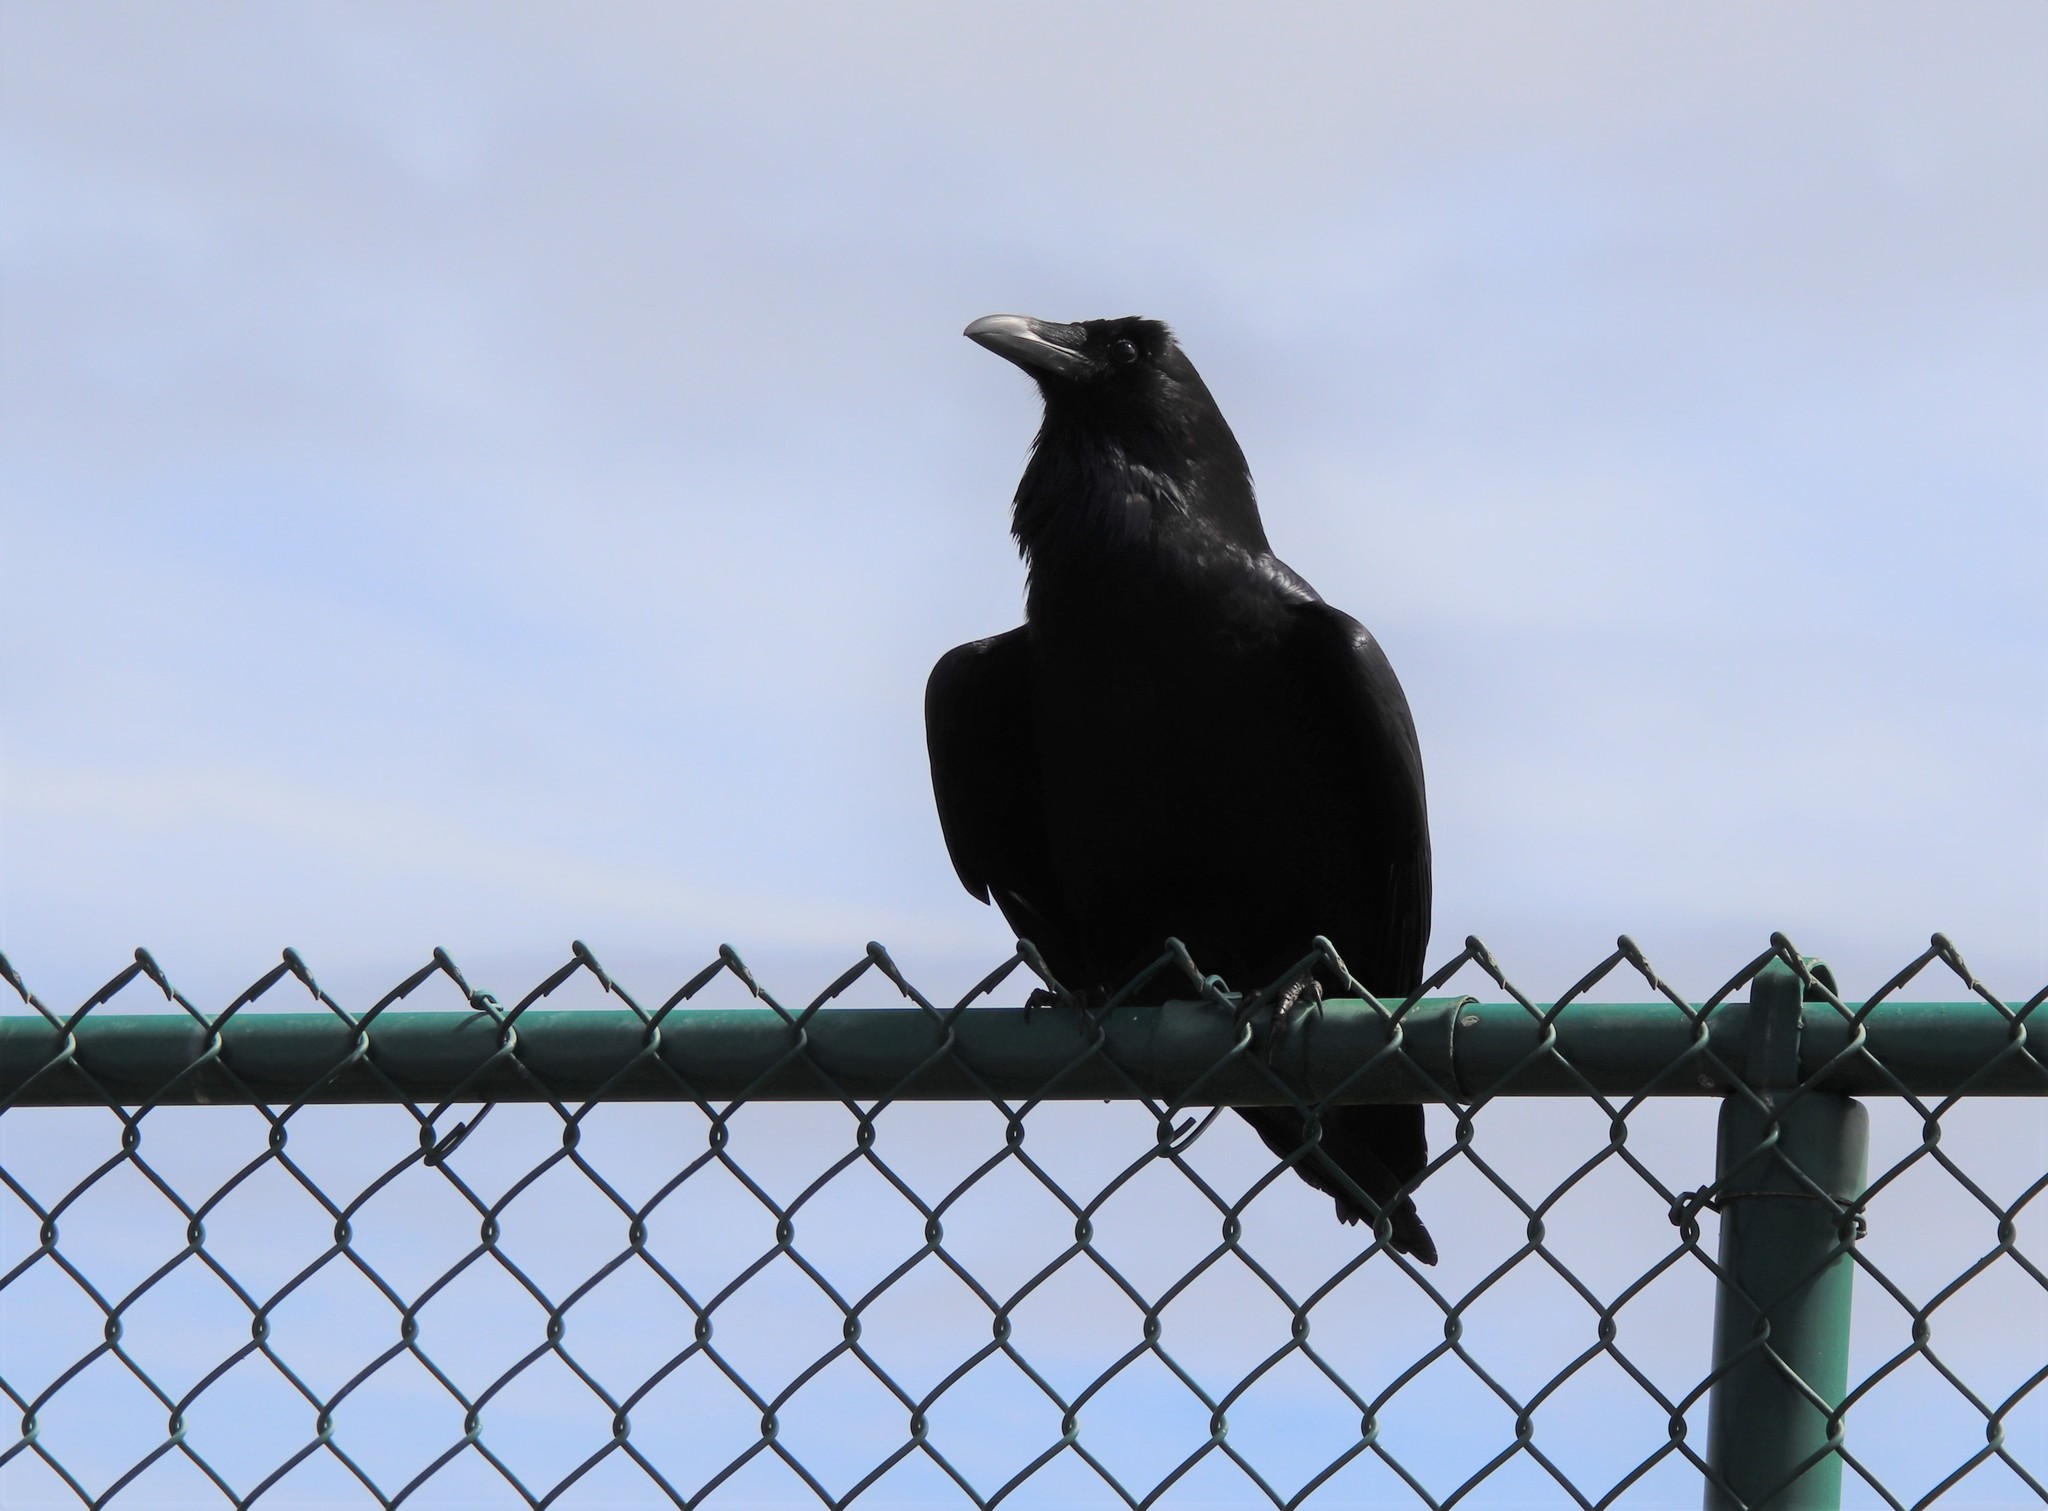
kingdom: Animalia
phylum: Chordata
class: Aves
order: Passeriformes
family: Corvidae
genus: Corvus
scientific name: Corvus corax
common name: Common raven
